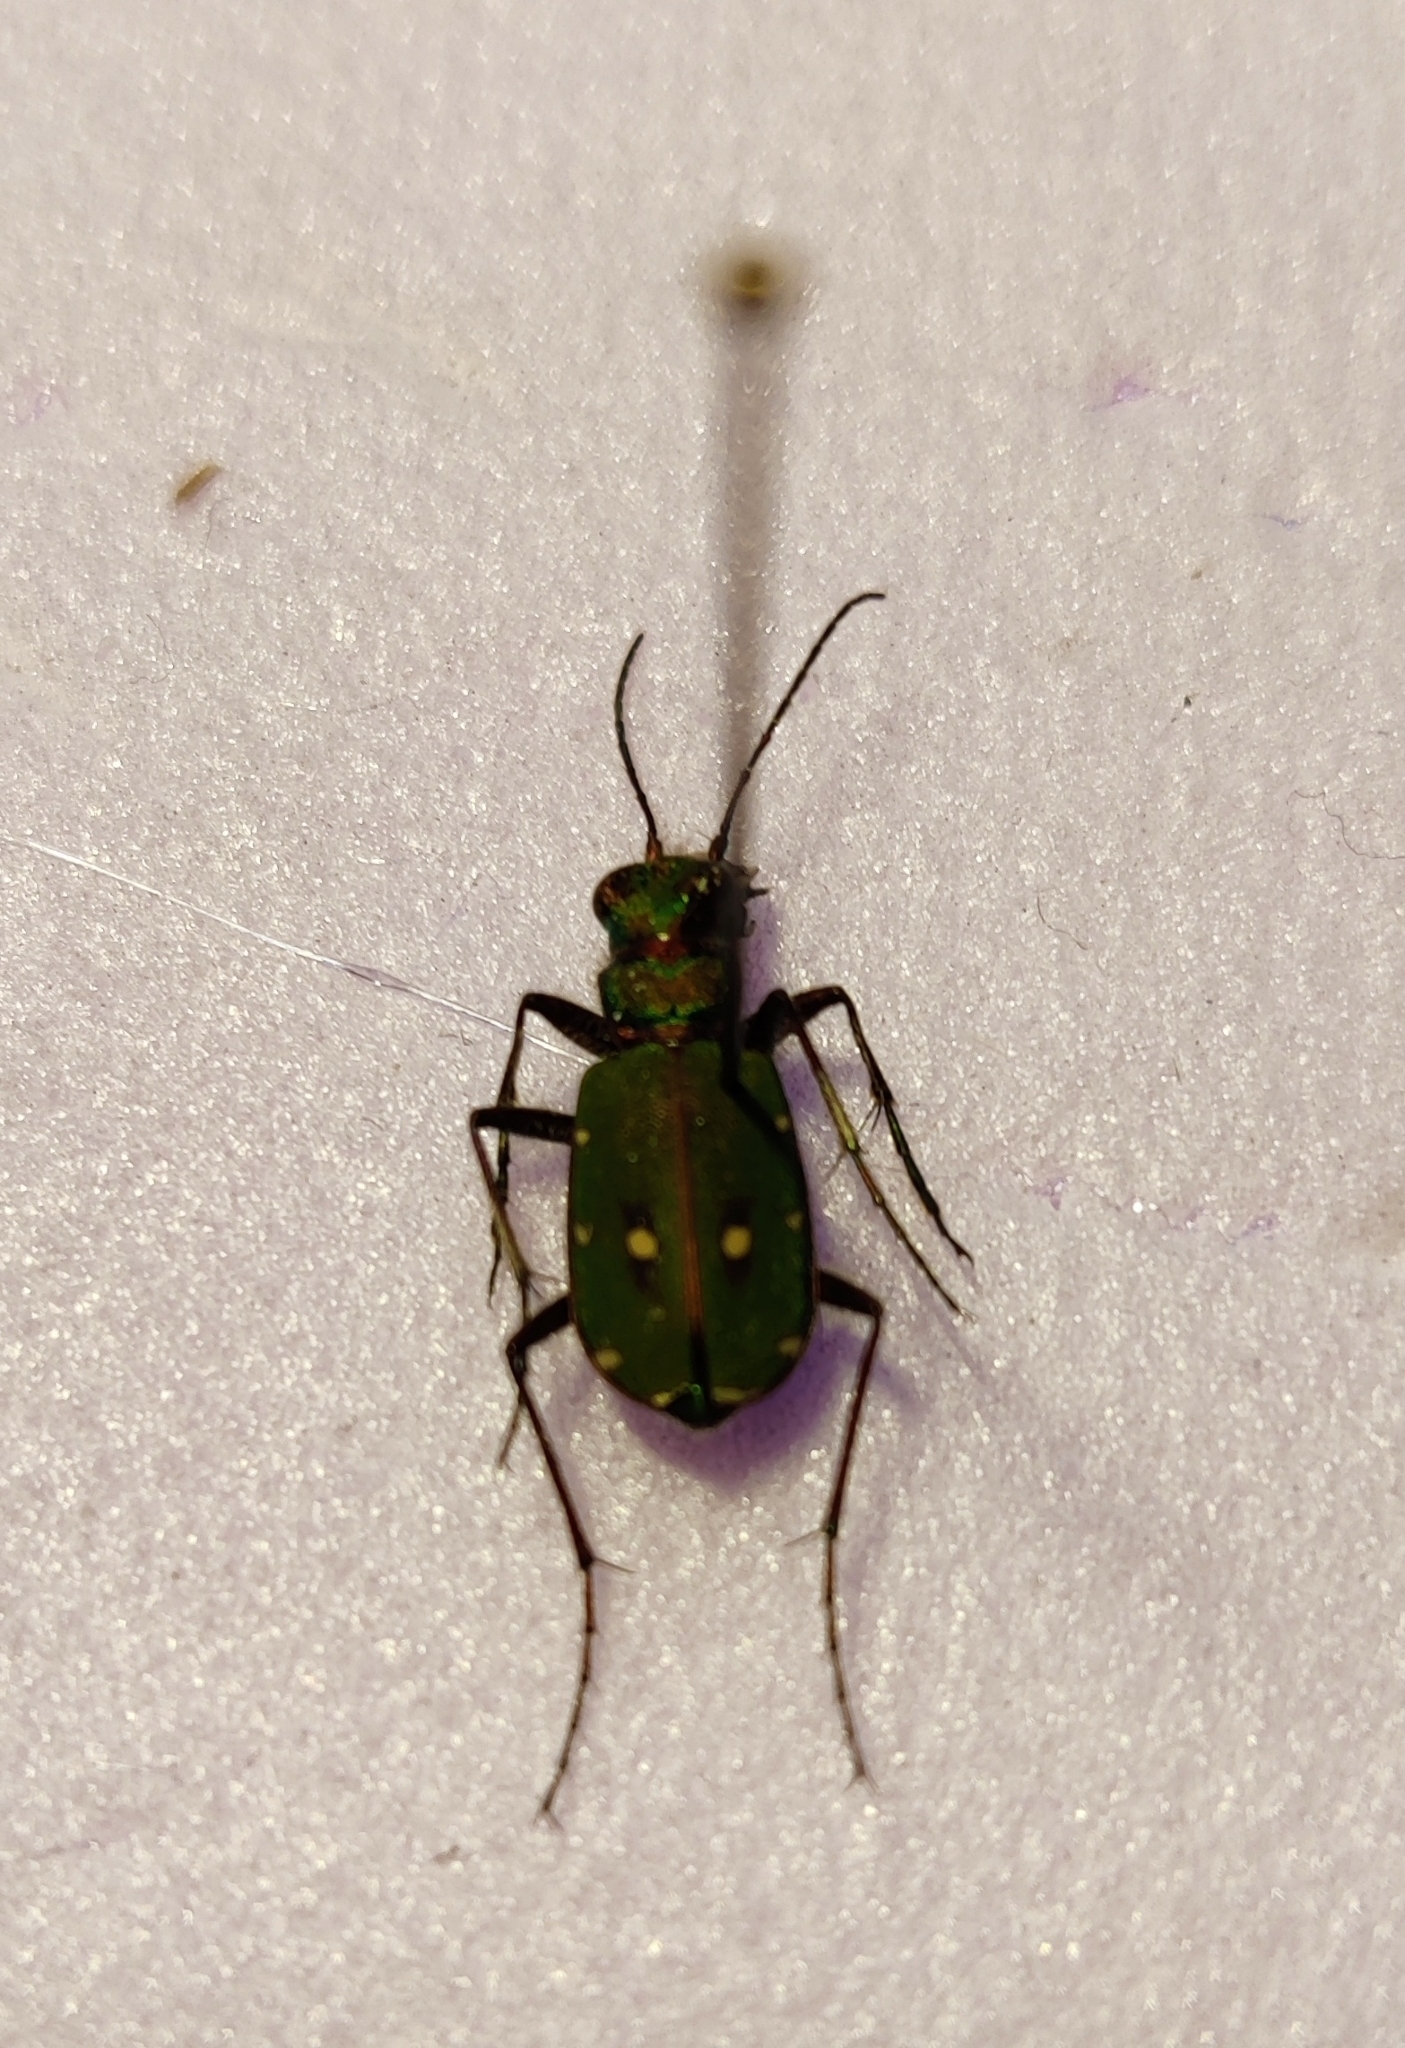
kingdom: Animalia
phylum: Arthropoda
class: Insecta
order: Coleoptera
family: Carabidae
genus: Cicindela
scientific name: Cicindela campestris
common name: Common tiger beetle
